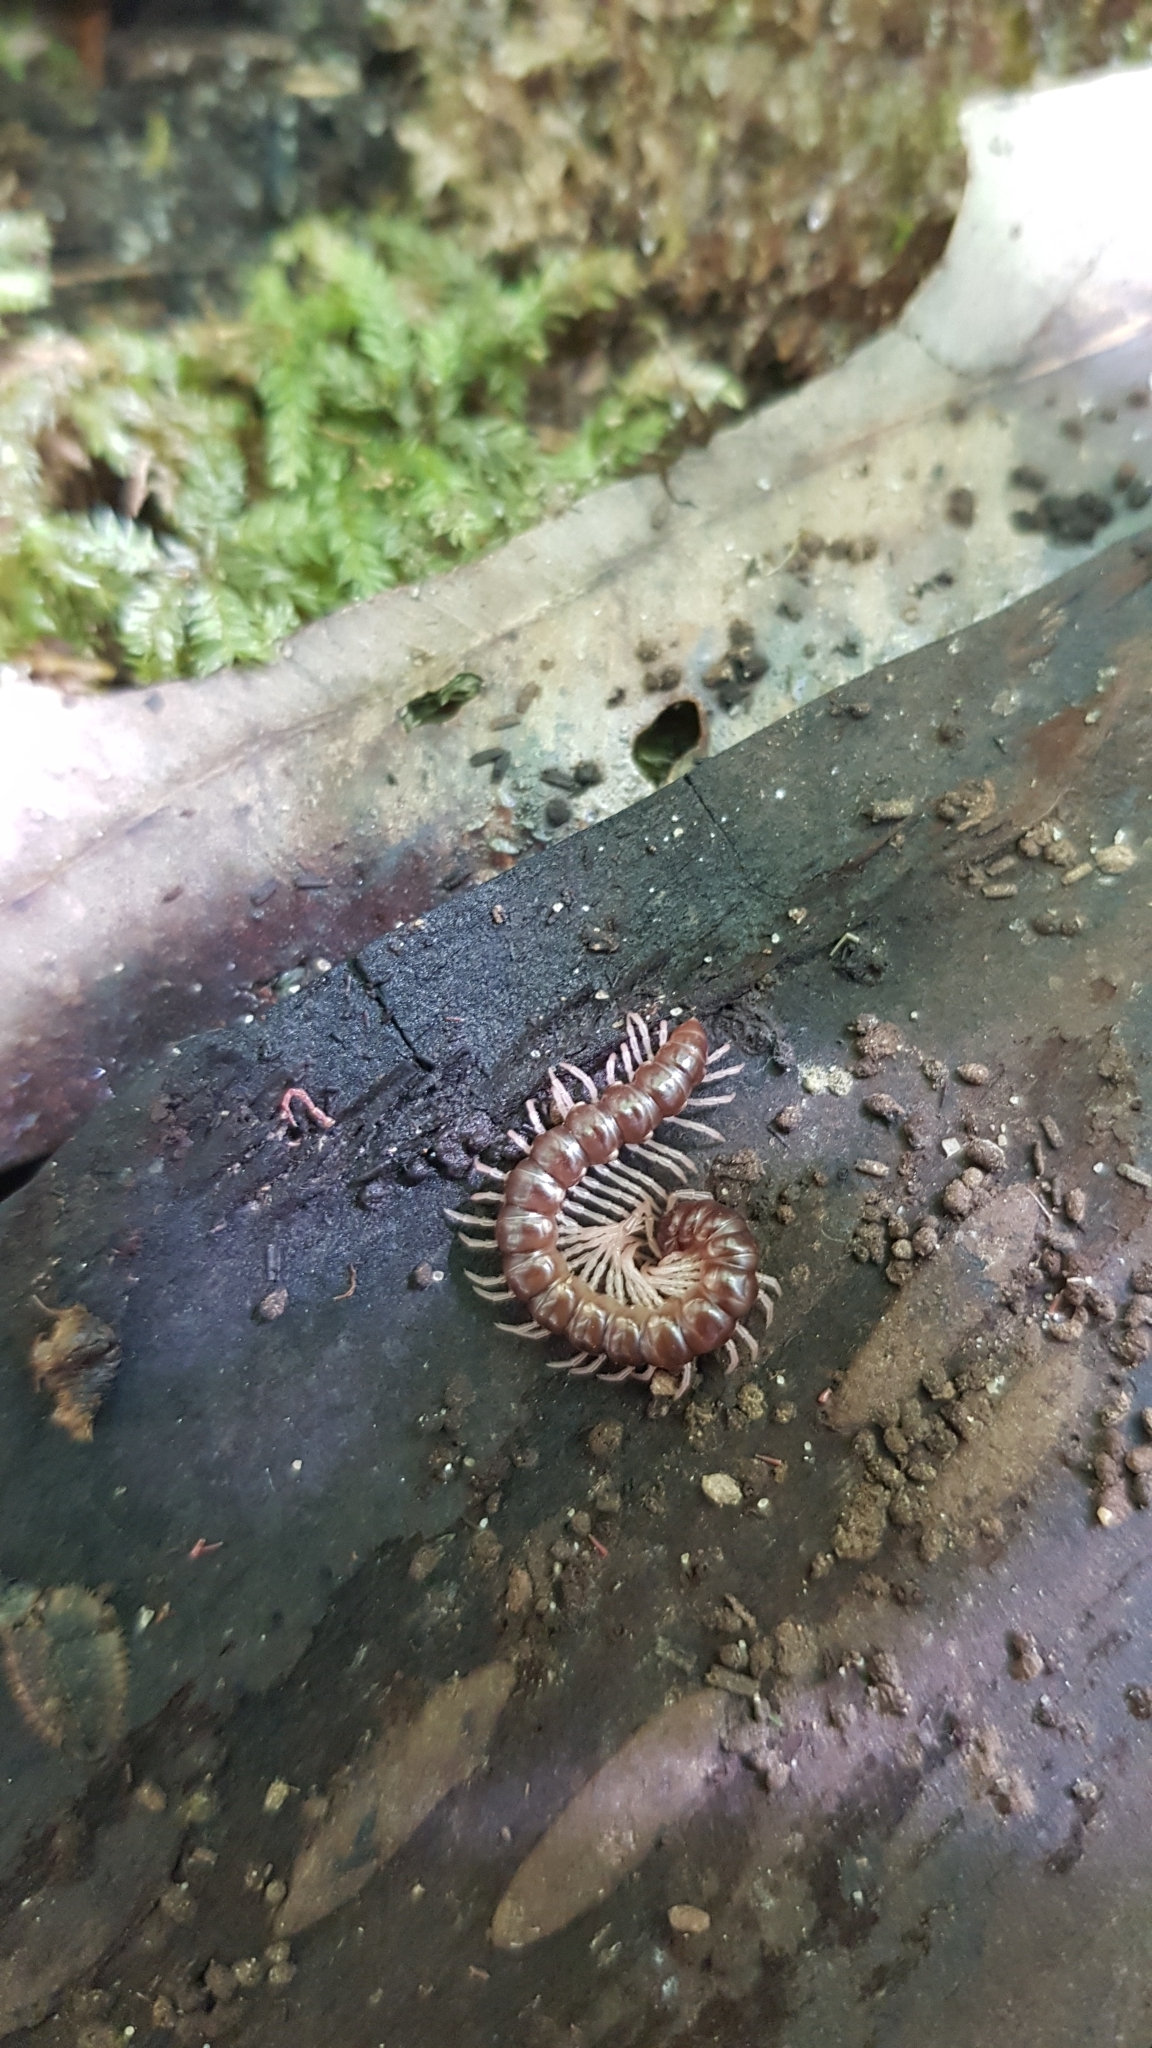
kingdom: Animalia
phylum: Arthropoda
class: Diplopoda
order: Polydesmida
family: Paradoxosomatidae
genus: Heterocladosoma
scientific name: Heterocladosoma
